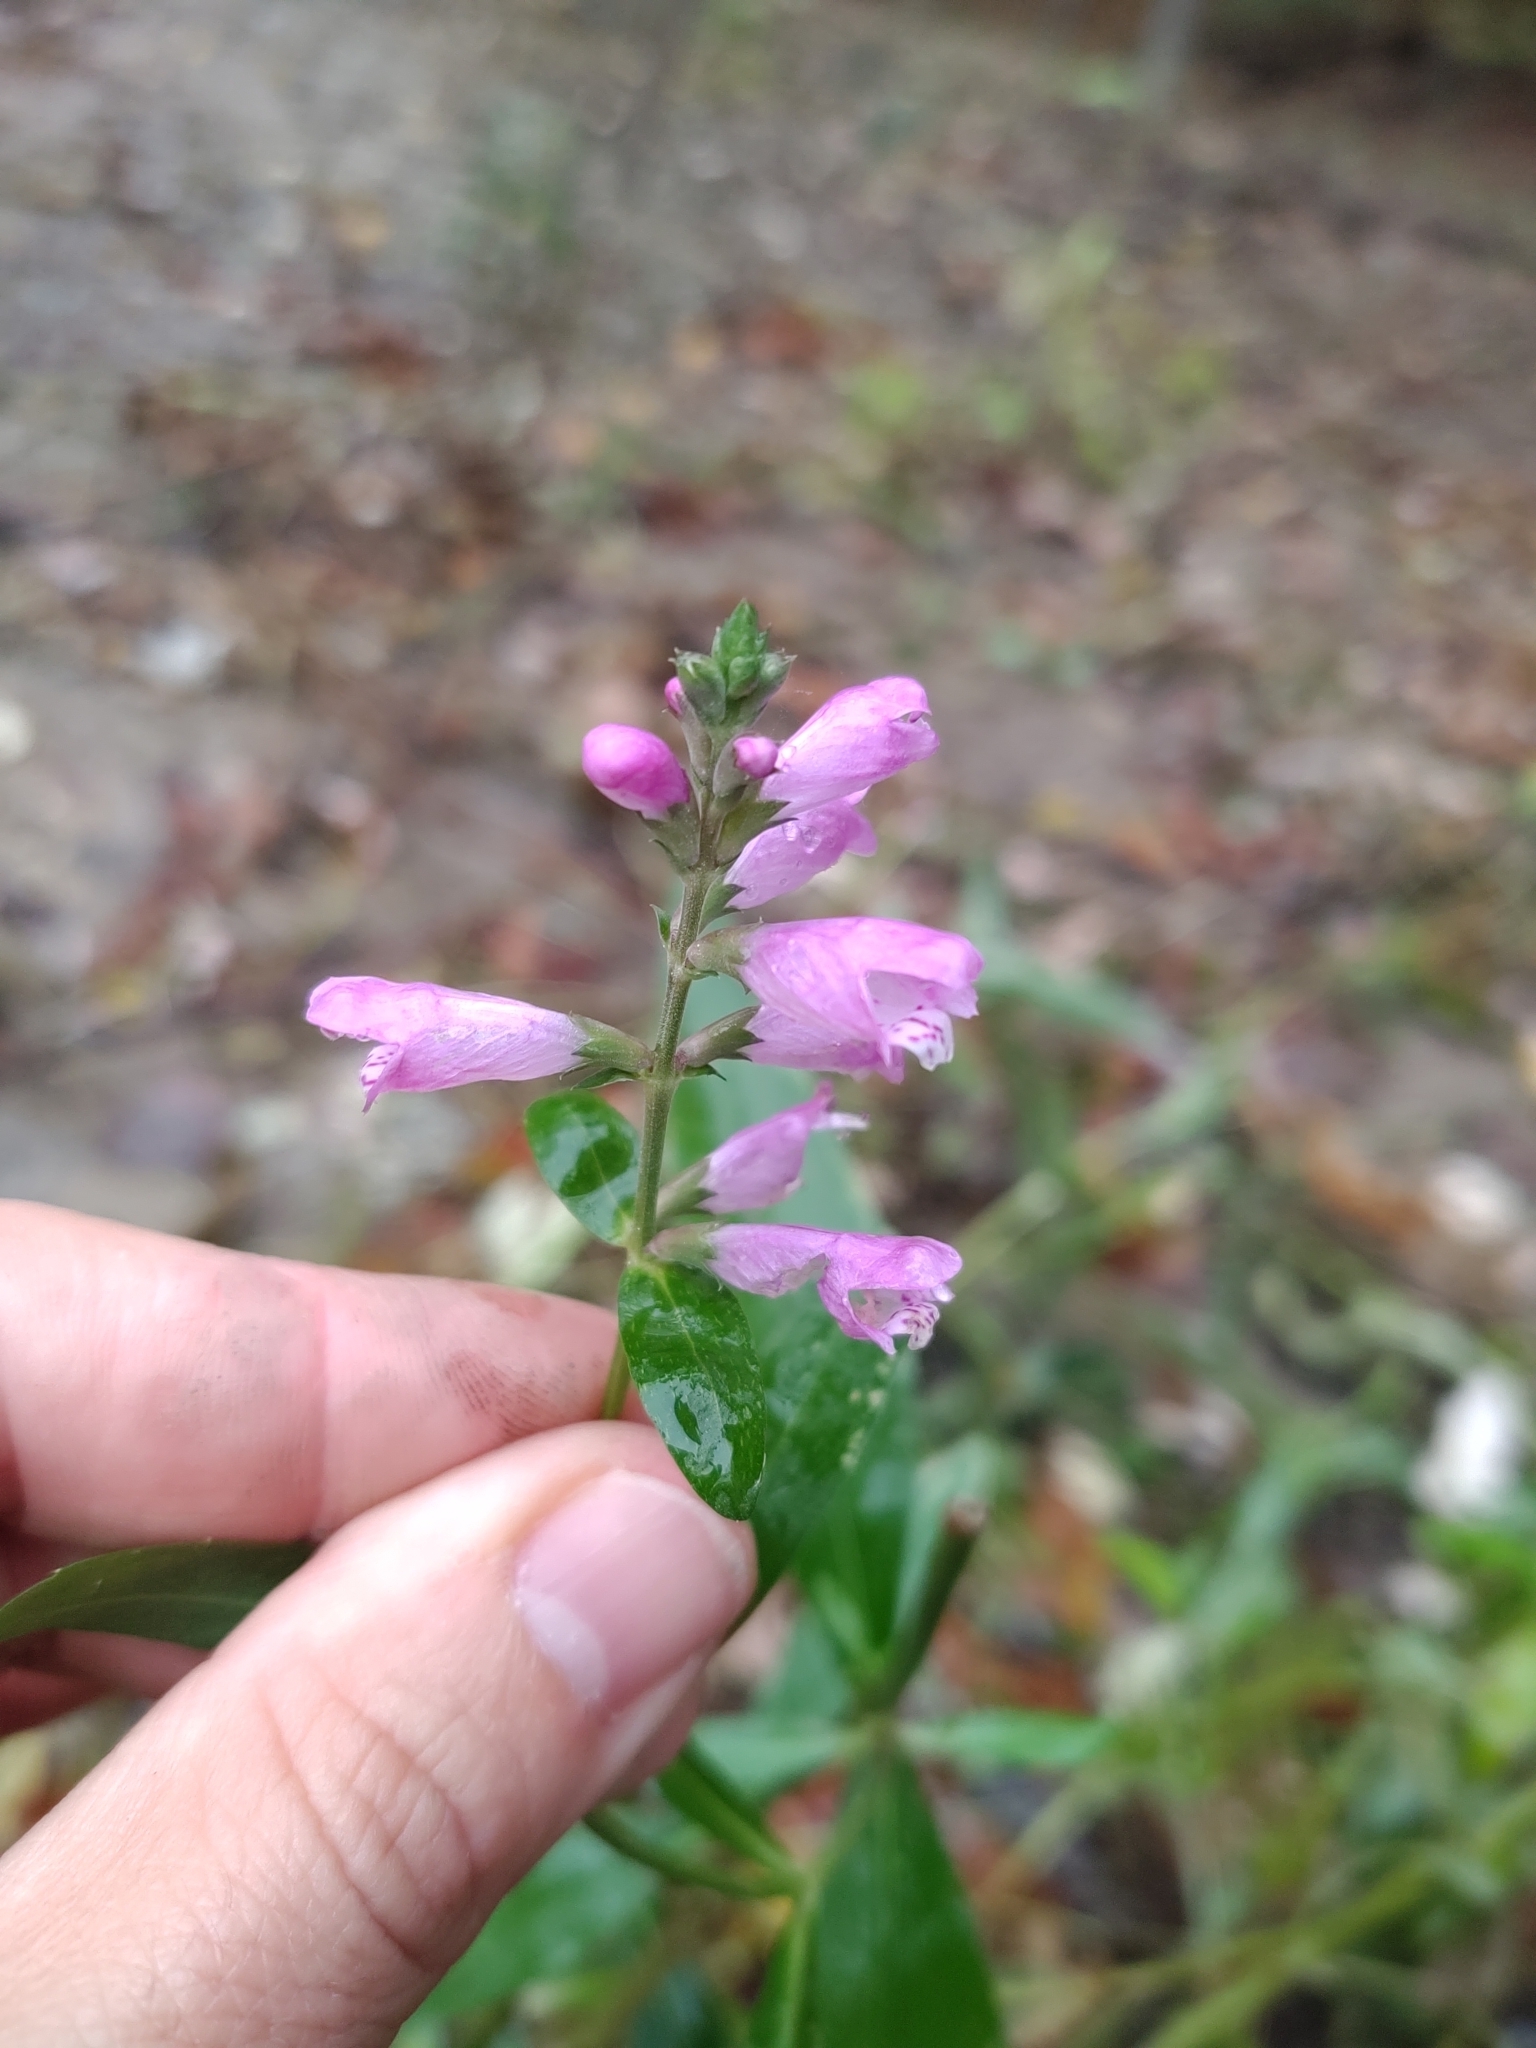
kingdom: Plantae
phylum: Tracheophyta
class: Magnoliopsida
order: Lamiales
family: Lamiaceae
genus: Physostegia
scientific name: Physostegia virginiana
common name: Obedient-plant
